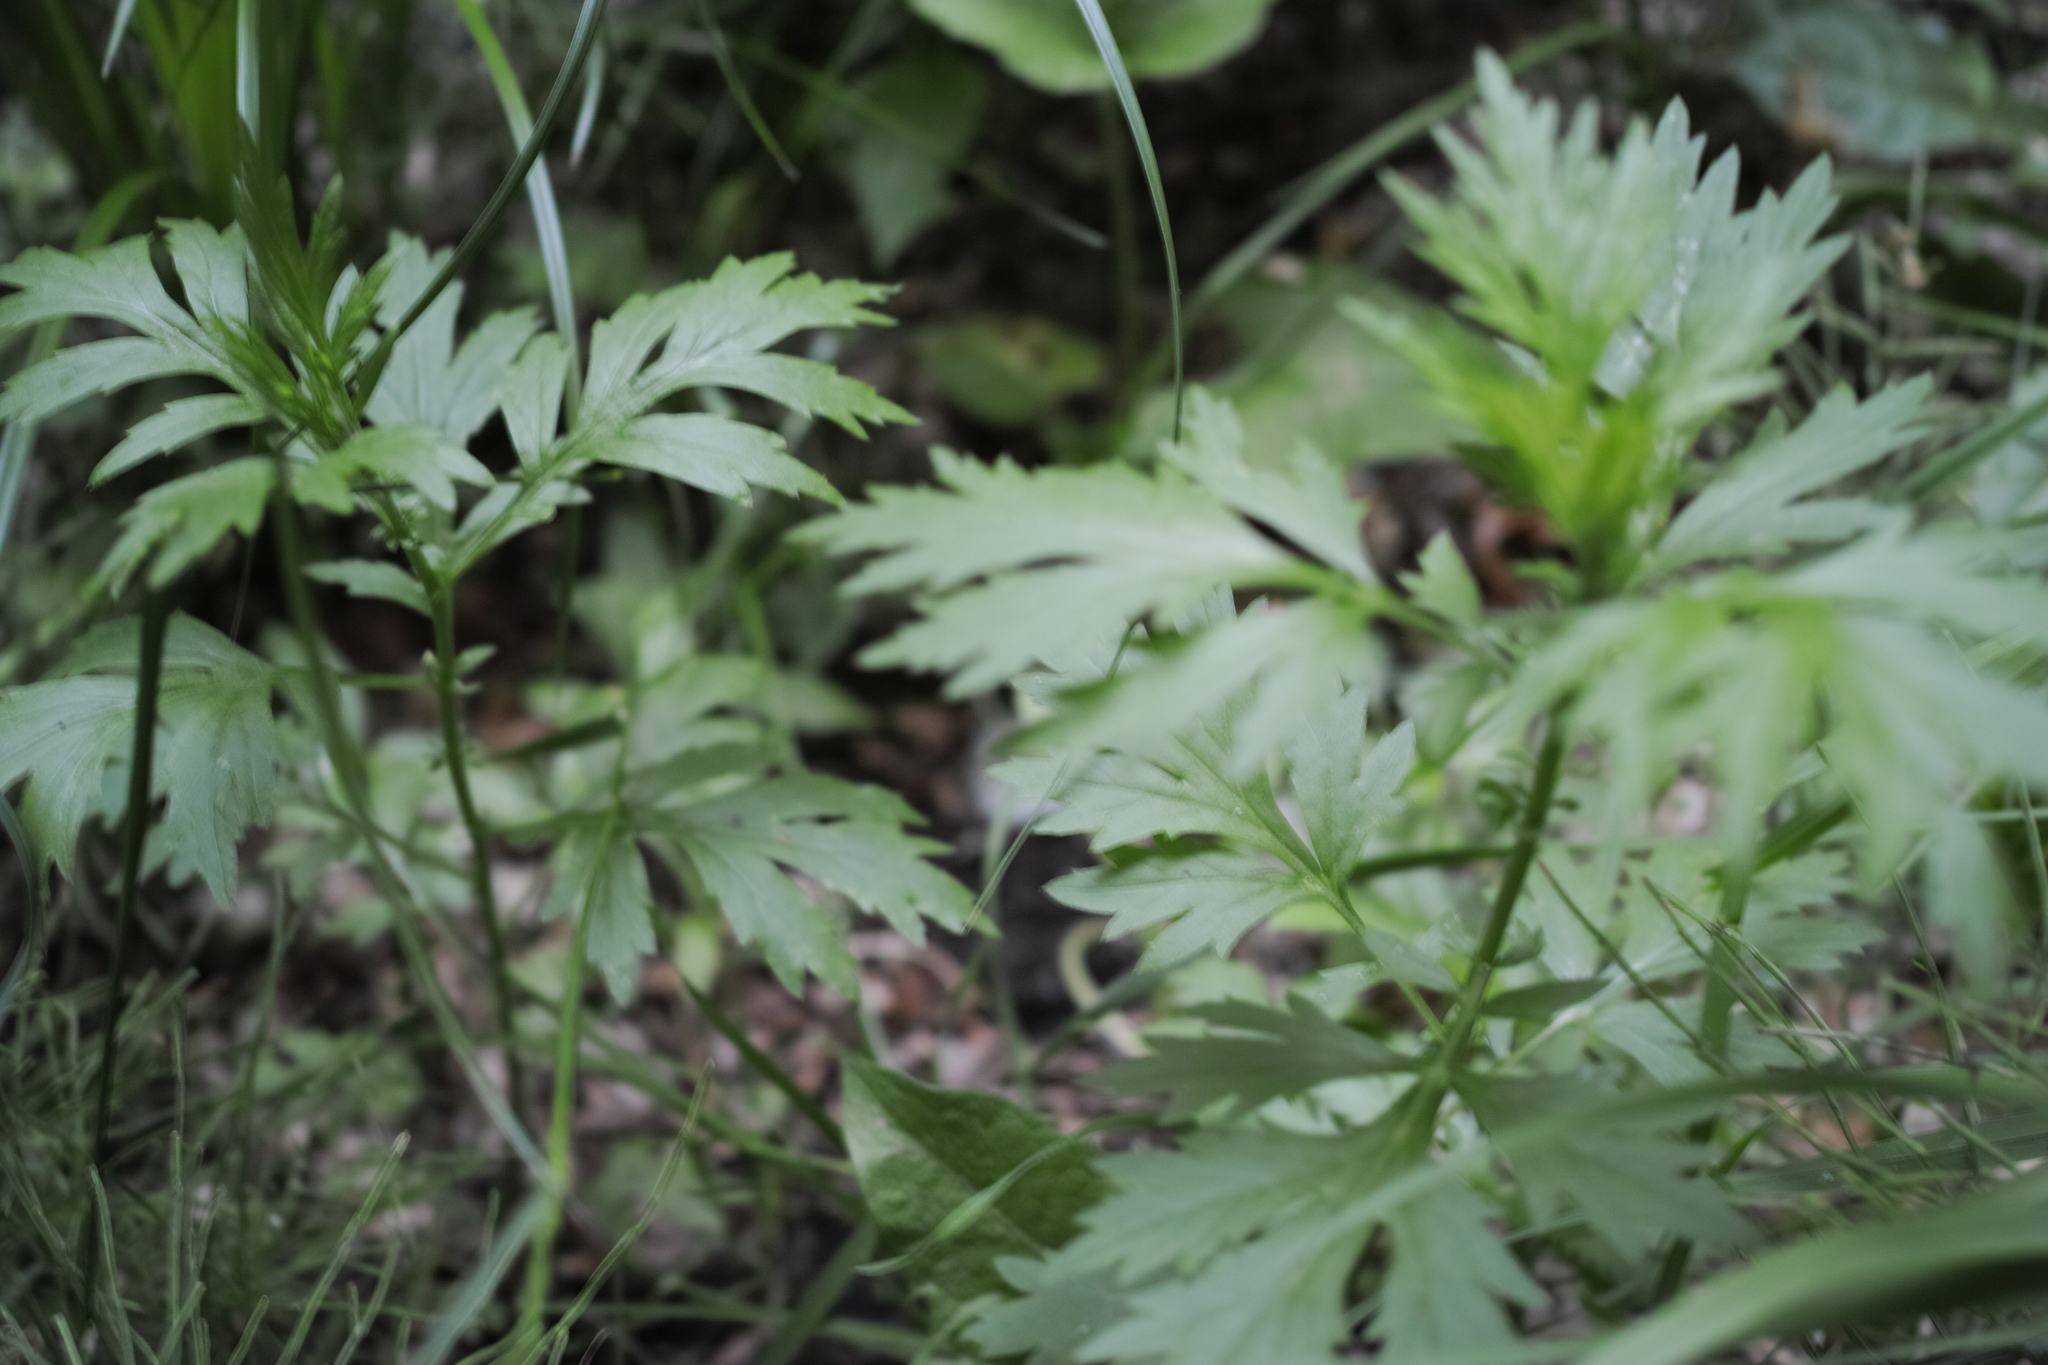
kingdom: Plantae
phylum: Tracheophyta
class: Magnoliopsida
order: Asterales
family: Asteraceae
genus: Artemisia
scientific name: Artemisia vulgaris
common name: Mugwort
